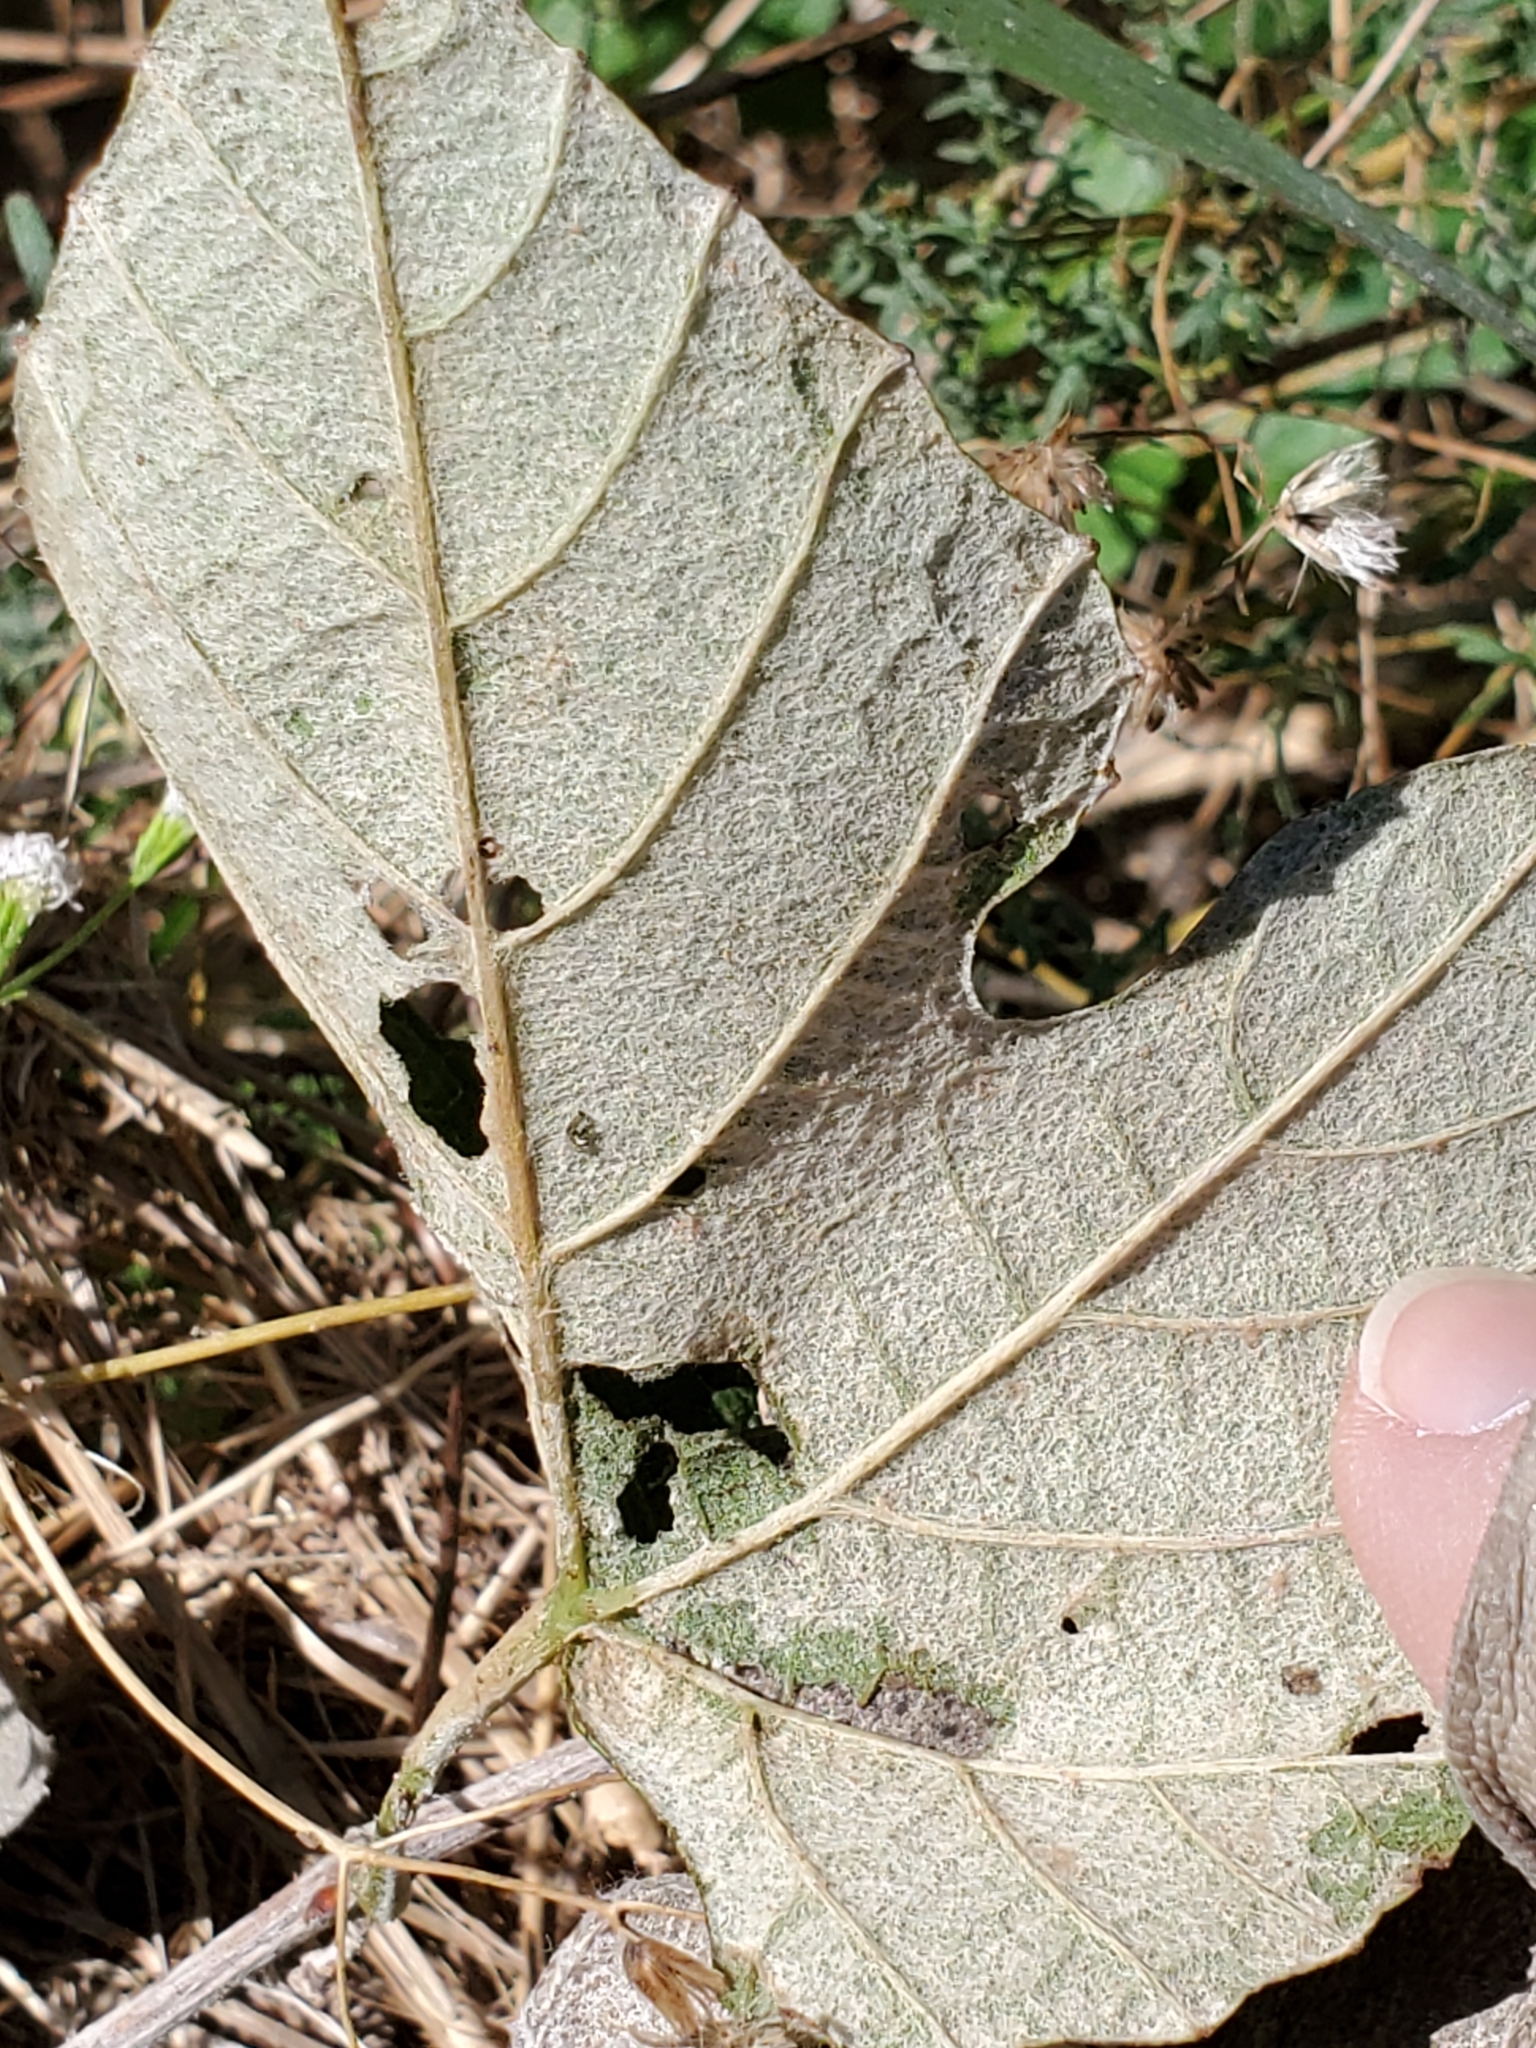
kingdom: Plantae
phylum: Tracheophyta
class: Magnoliopsida
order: Vitales
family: Vitaceae
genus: Vitis
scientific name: Vitis mustangensis
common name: Mustang grape
